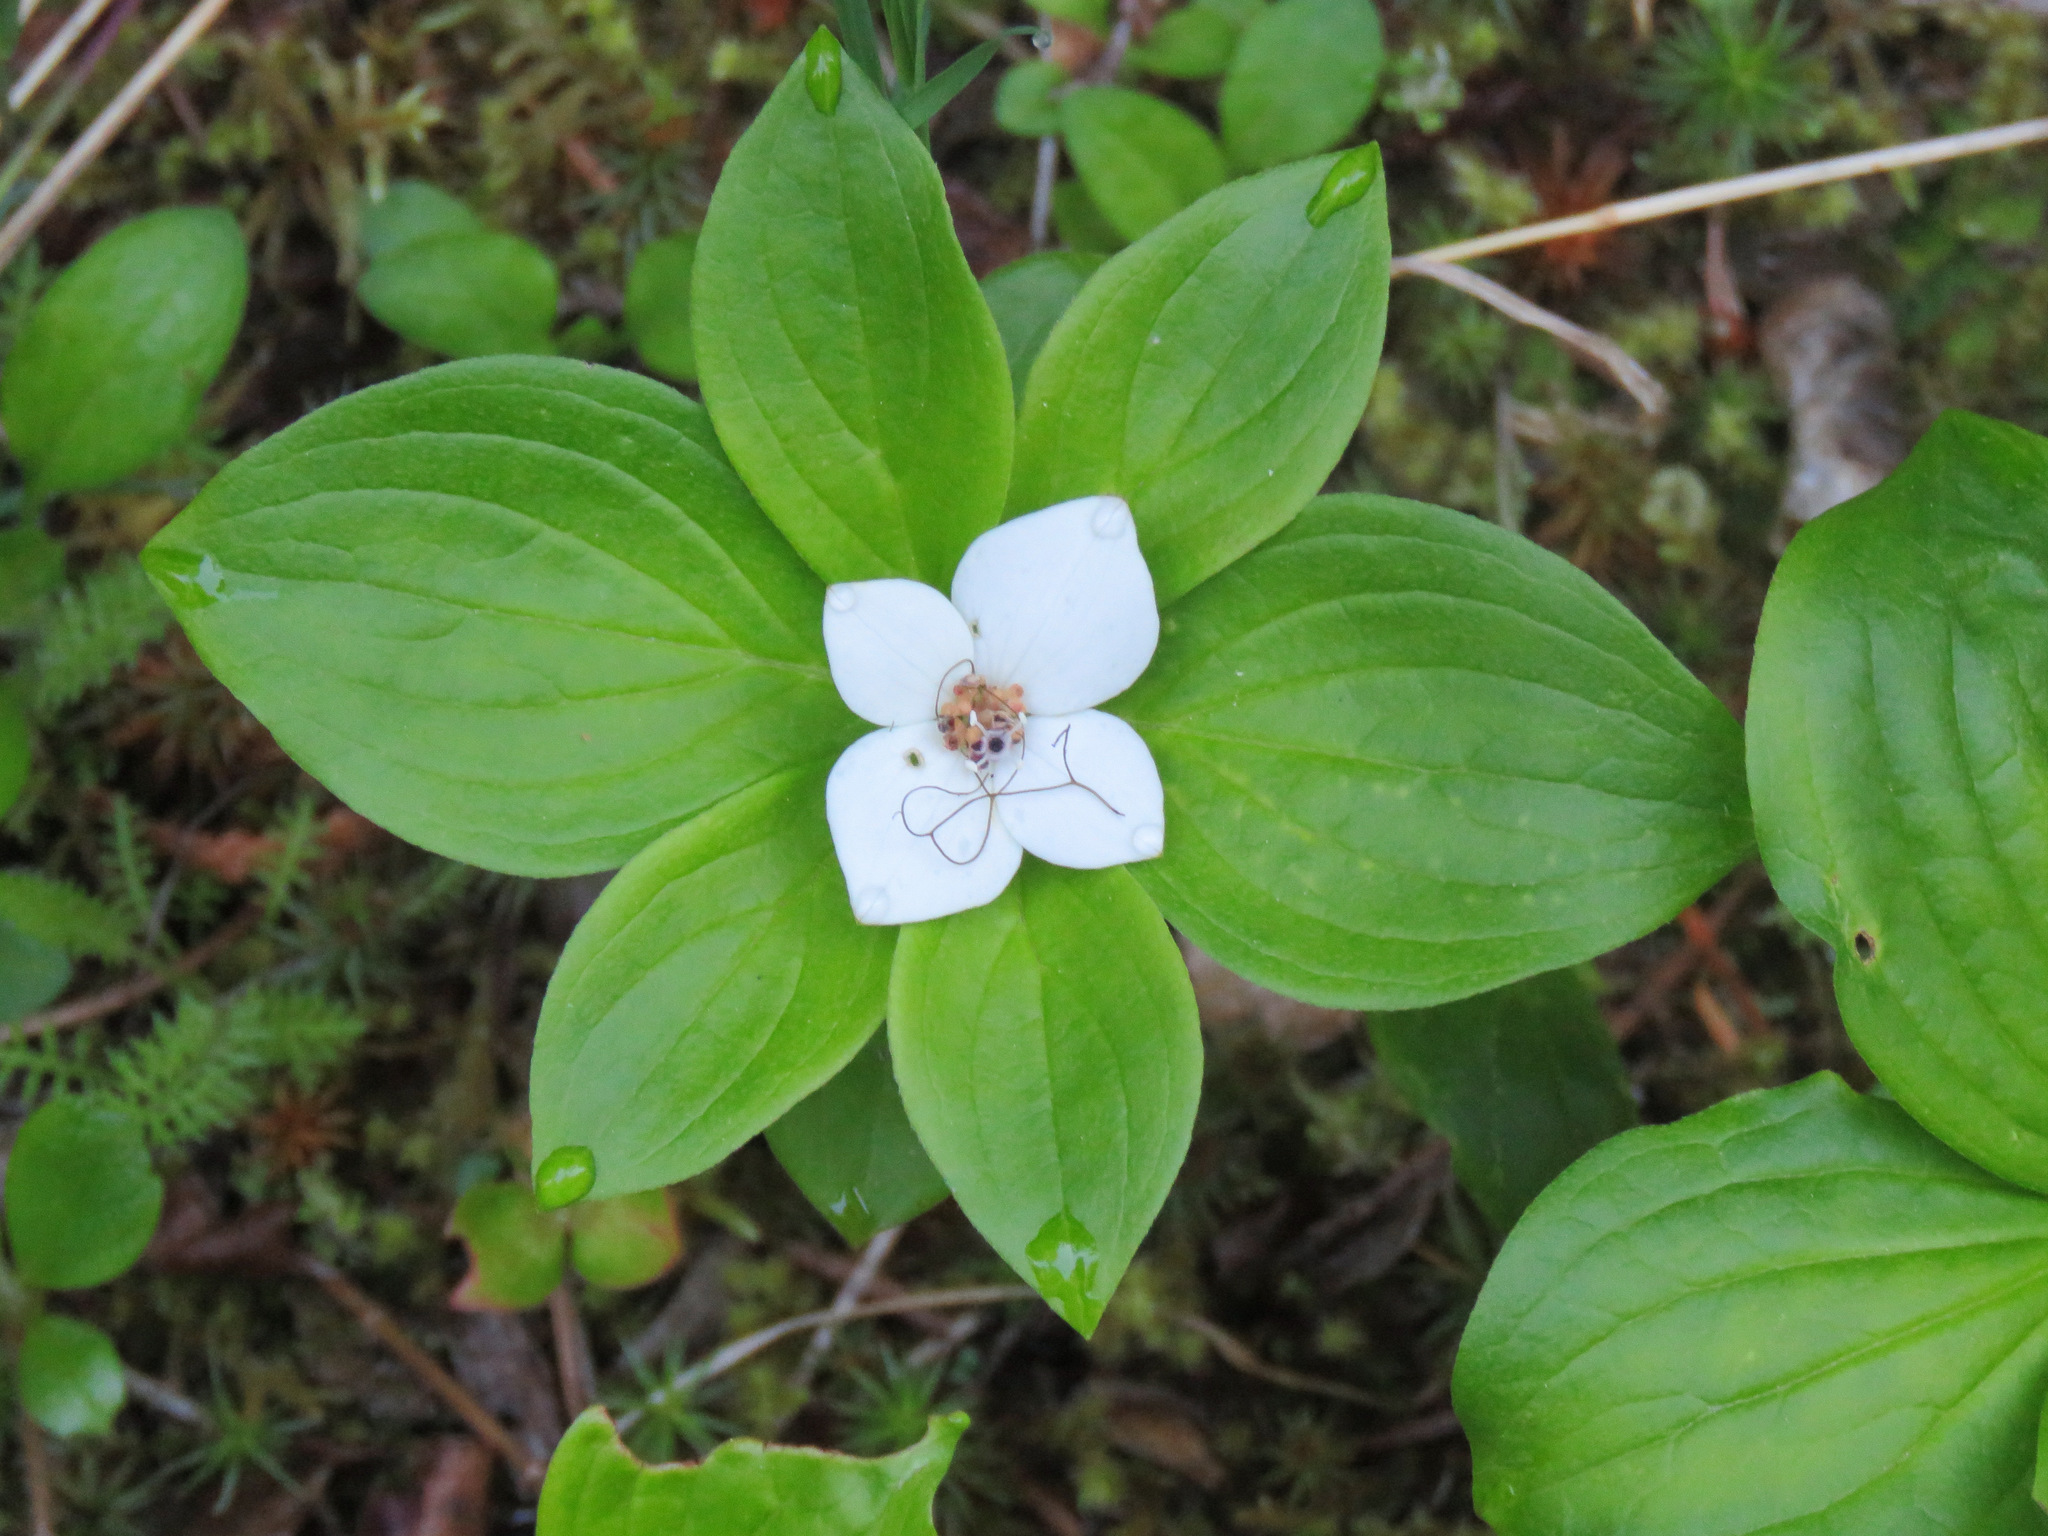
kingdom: Plantae
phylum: Tracheophyta
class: Magnoliopsida
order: Cornales
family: Cornaceae
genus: Cornus
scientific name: Cornus unalaschkensis
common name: Alaska bunchberry
